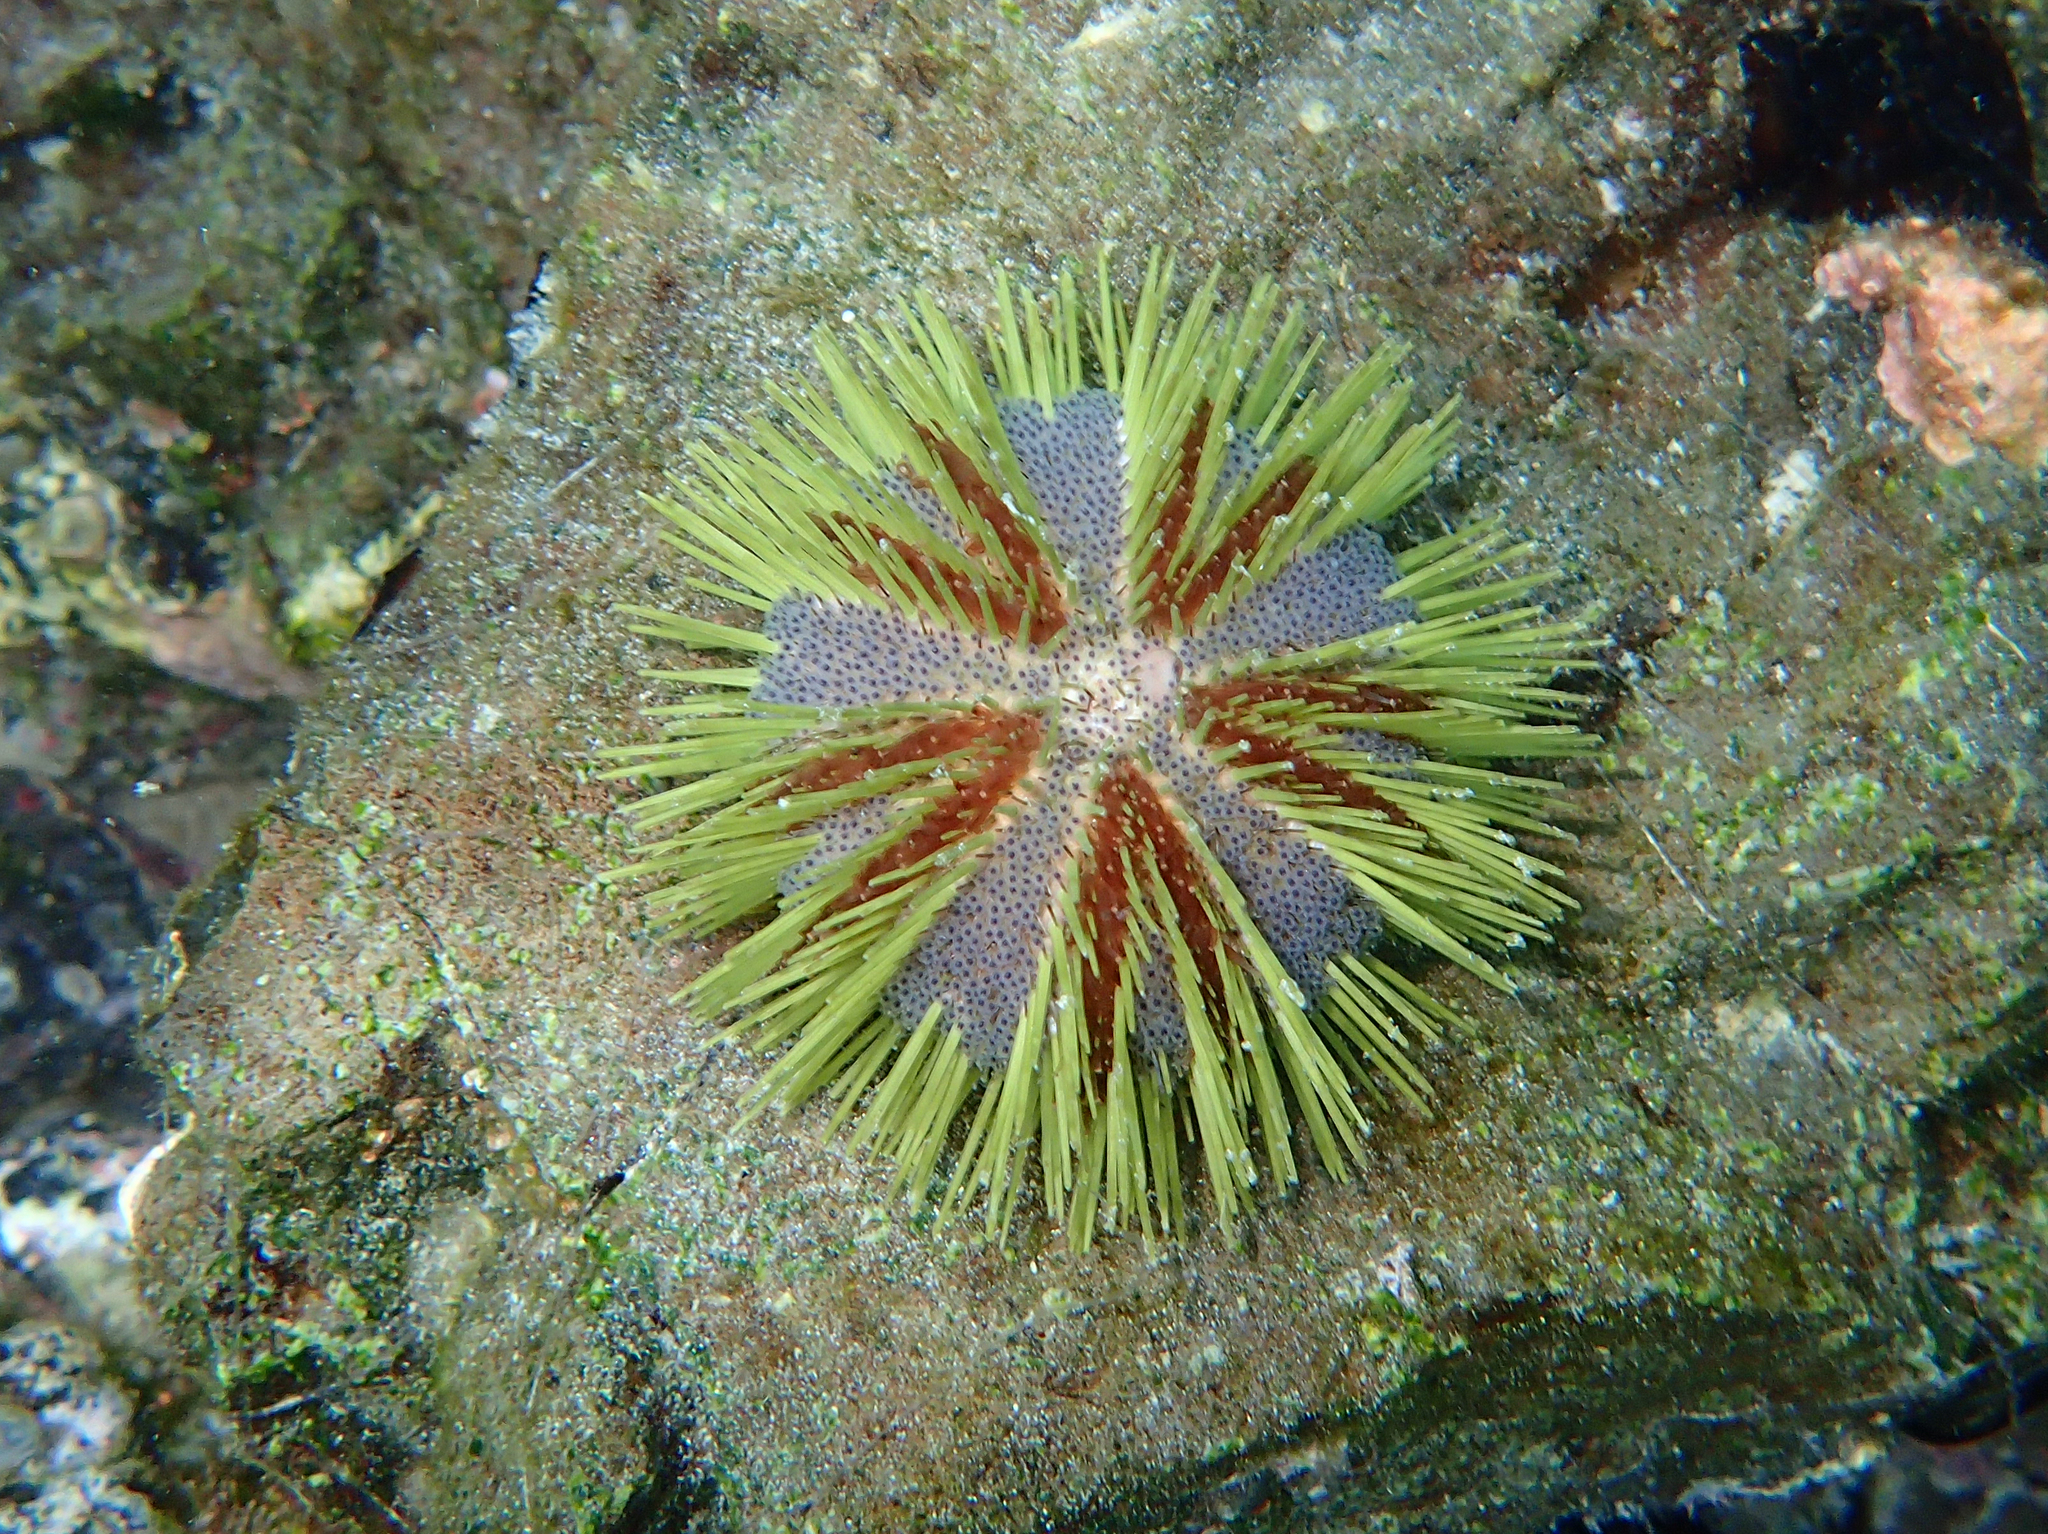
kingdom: Animalia
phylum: Echinodermata
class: Echinoidea
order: Camarodonta
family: Toxopneustidae
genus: Lytechinus
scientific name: Lytechinus semituberculatus
